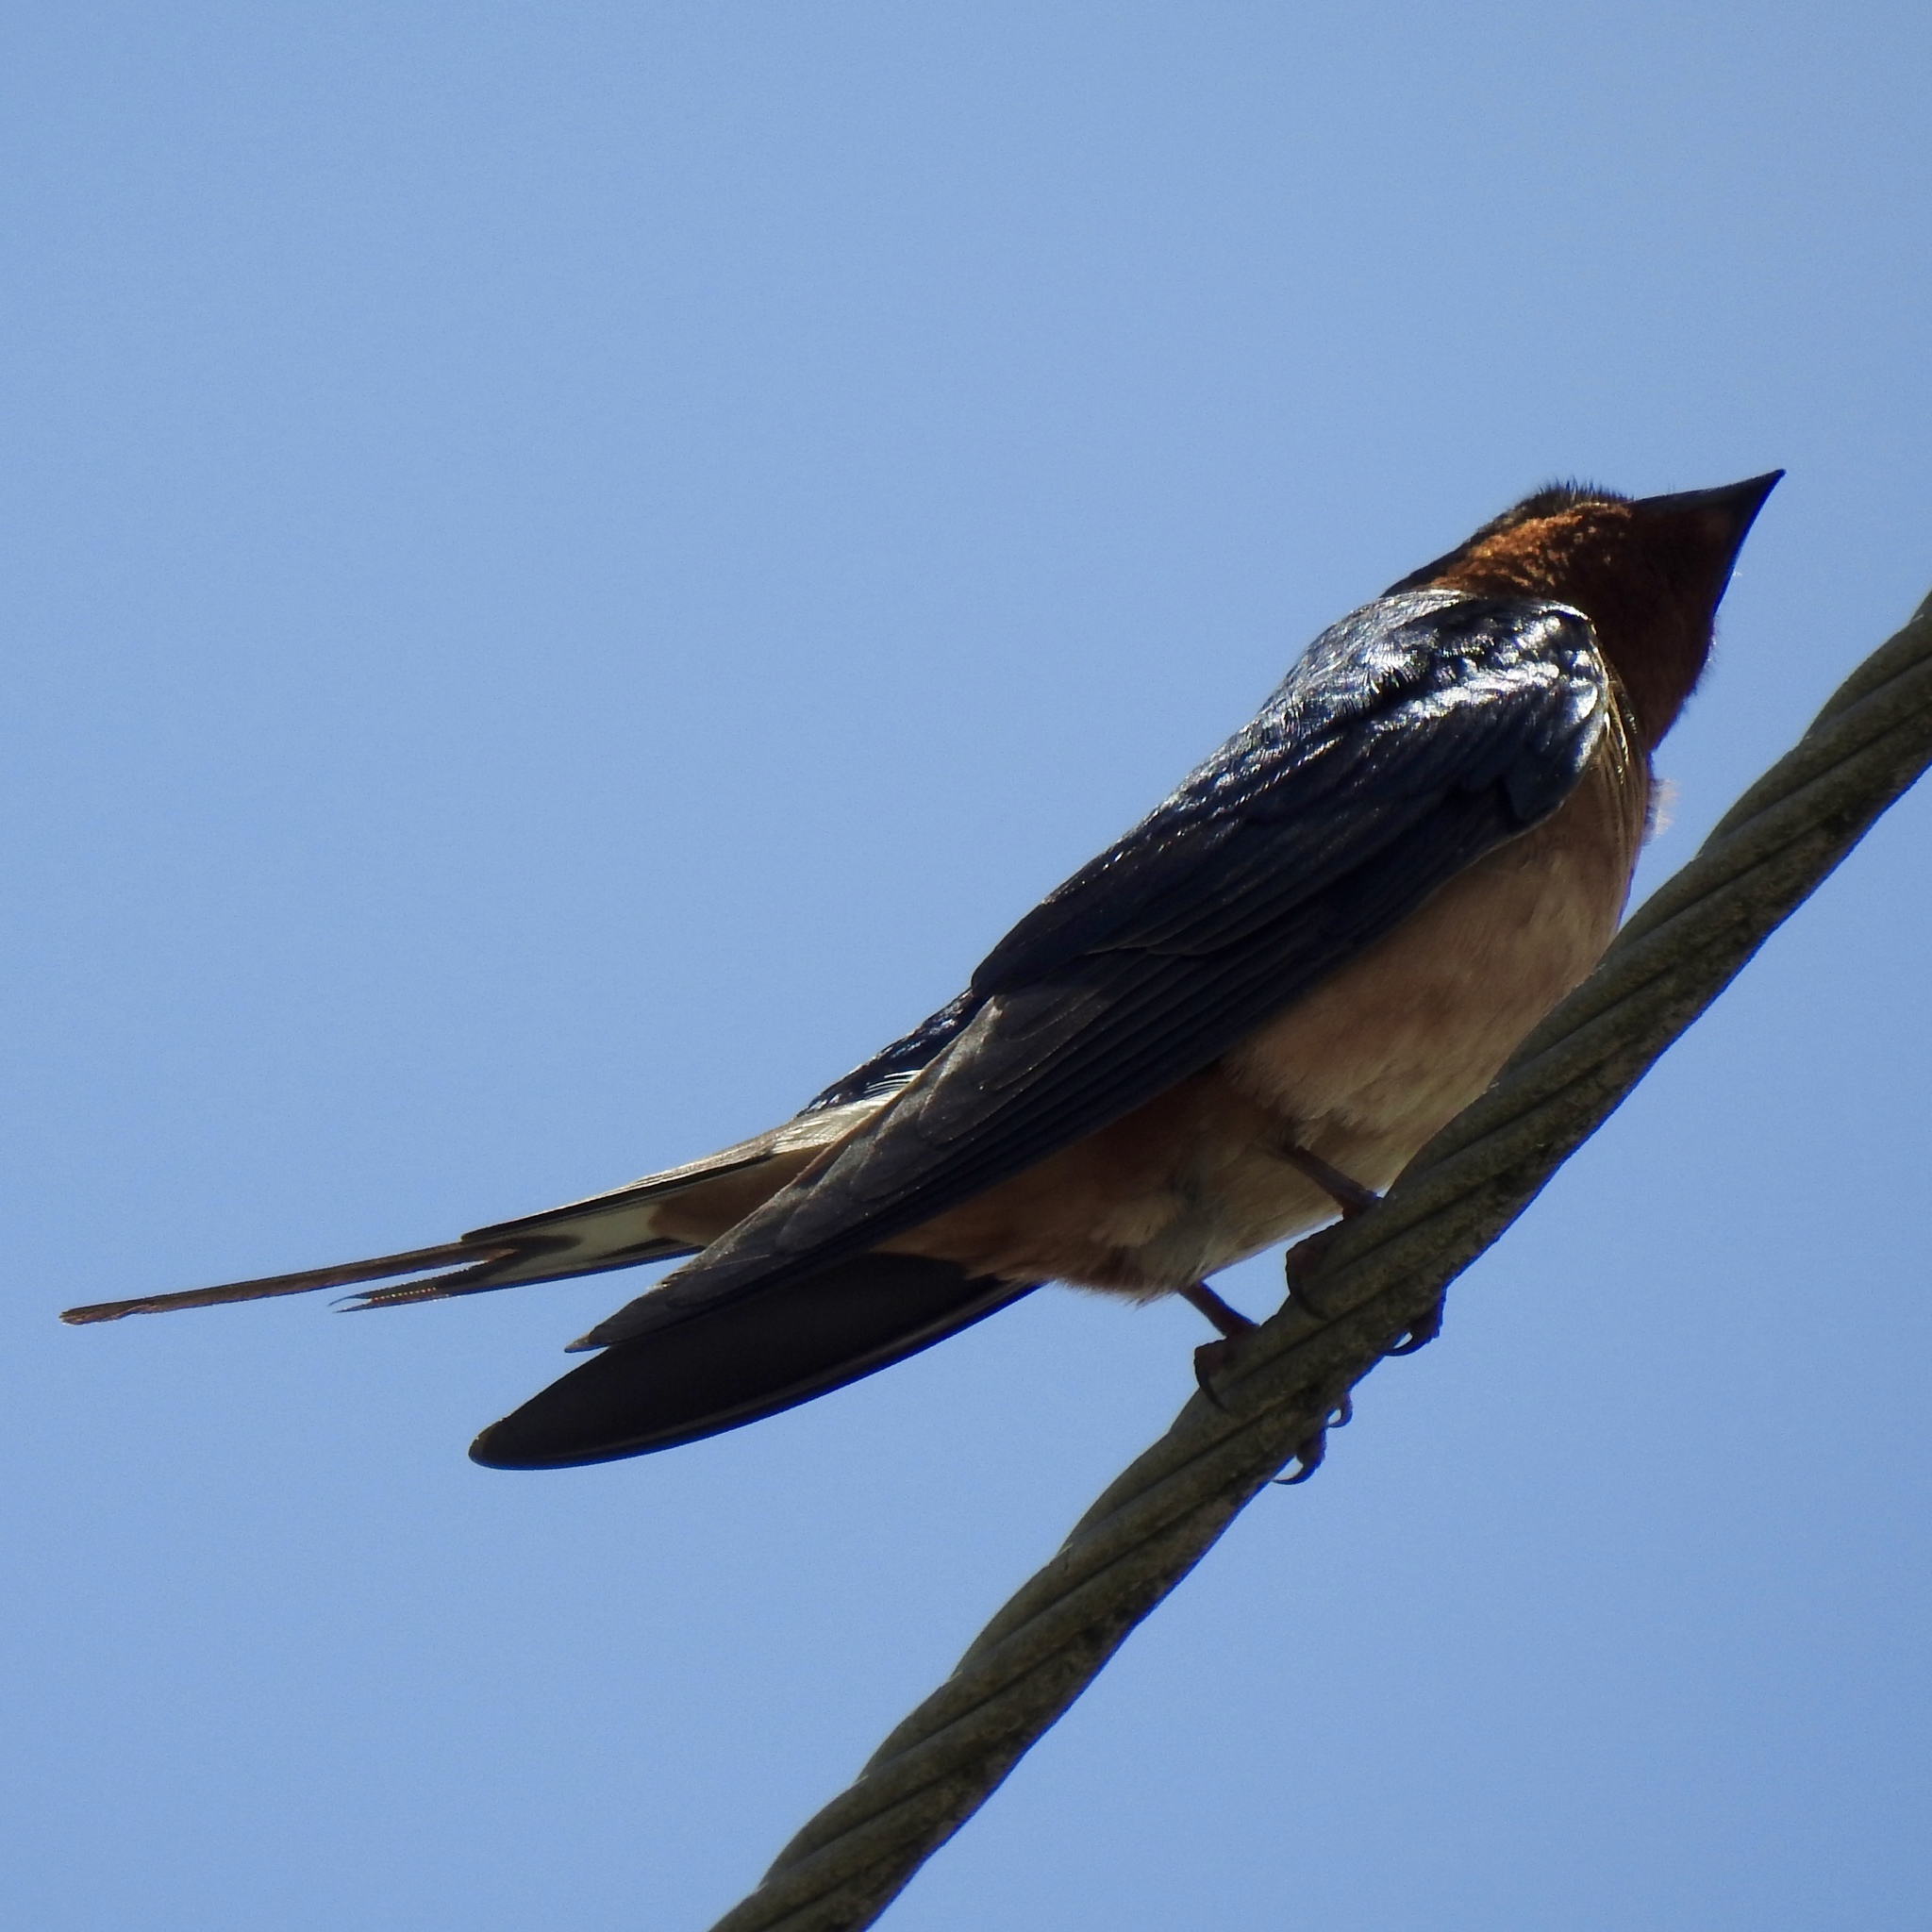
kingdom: Animalia
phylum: Chordata
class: Aves
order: Passeriformes
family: Hirundinidae
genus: Hirundo
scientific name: Hirundo rustica
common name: Barn swallow
